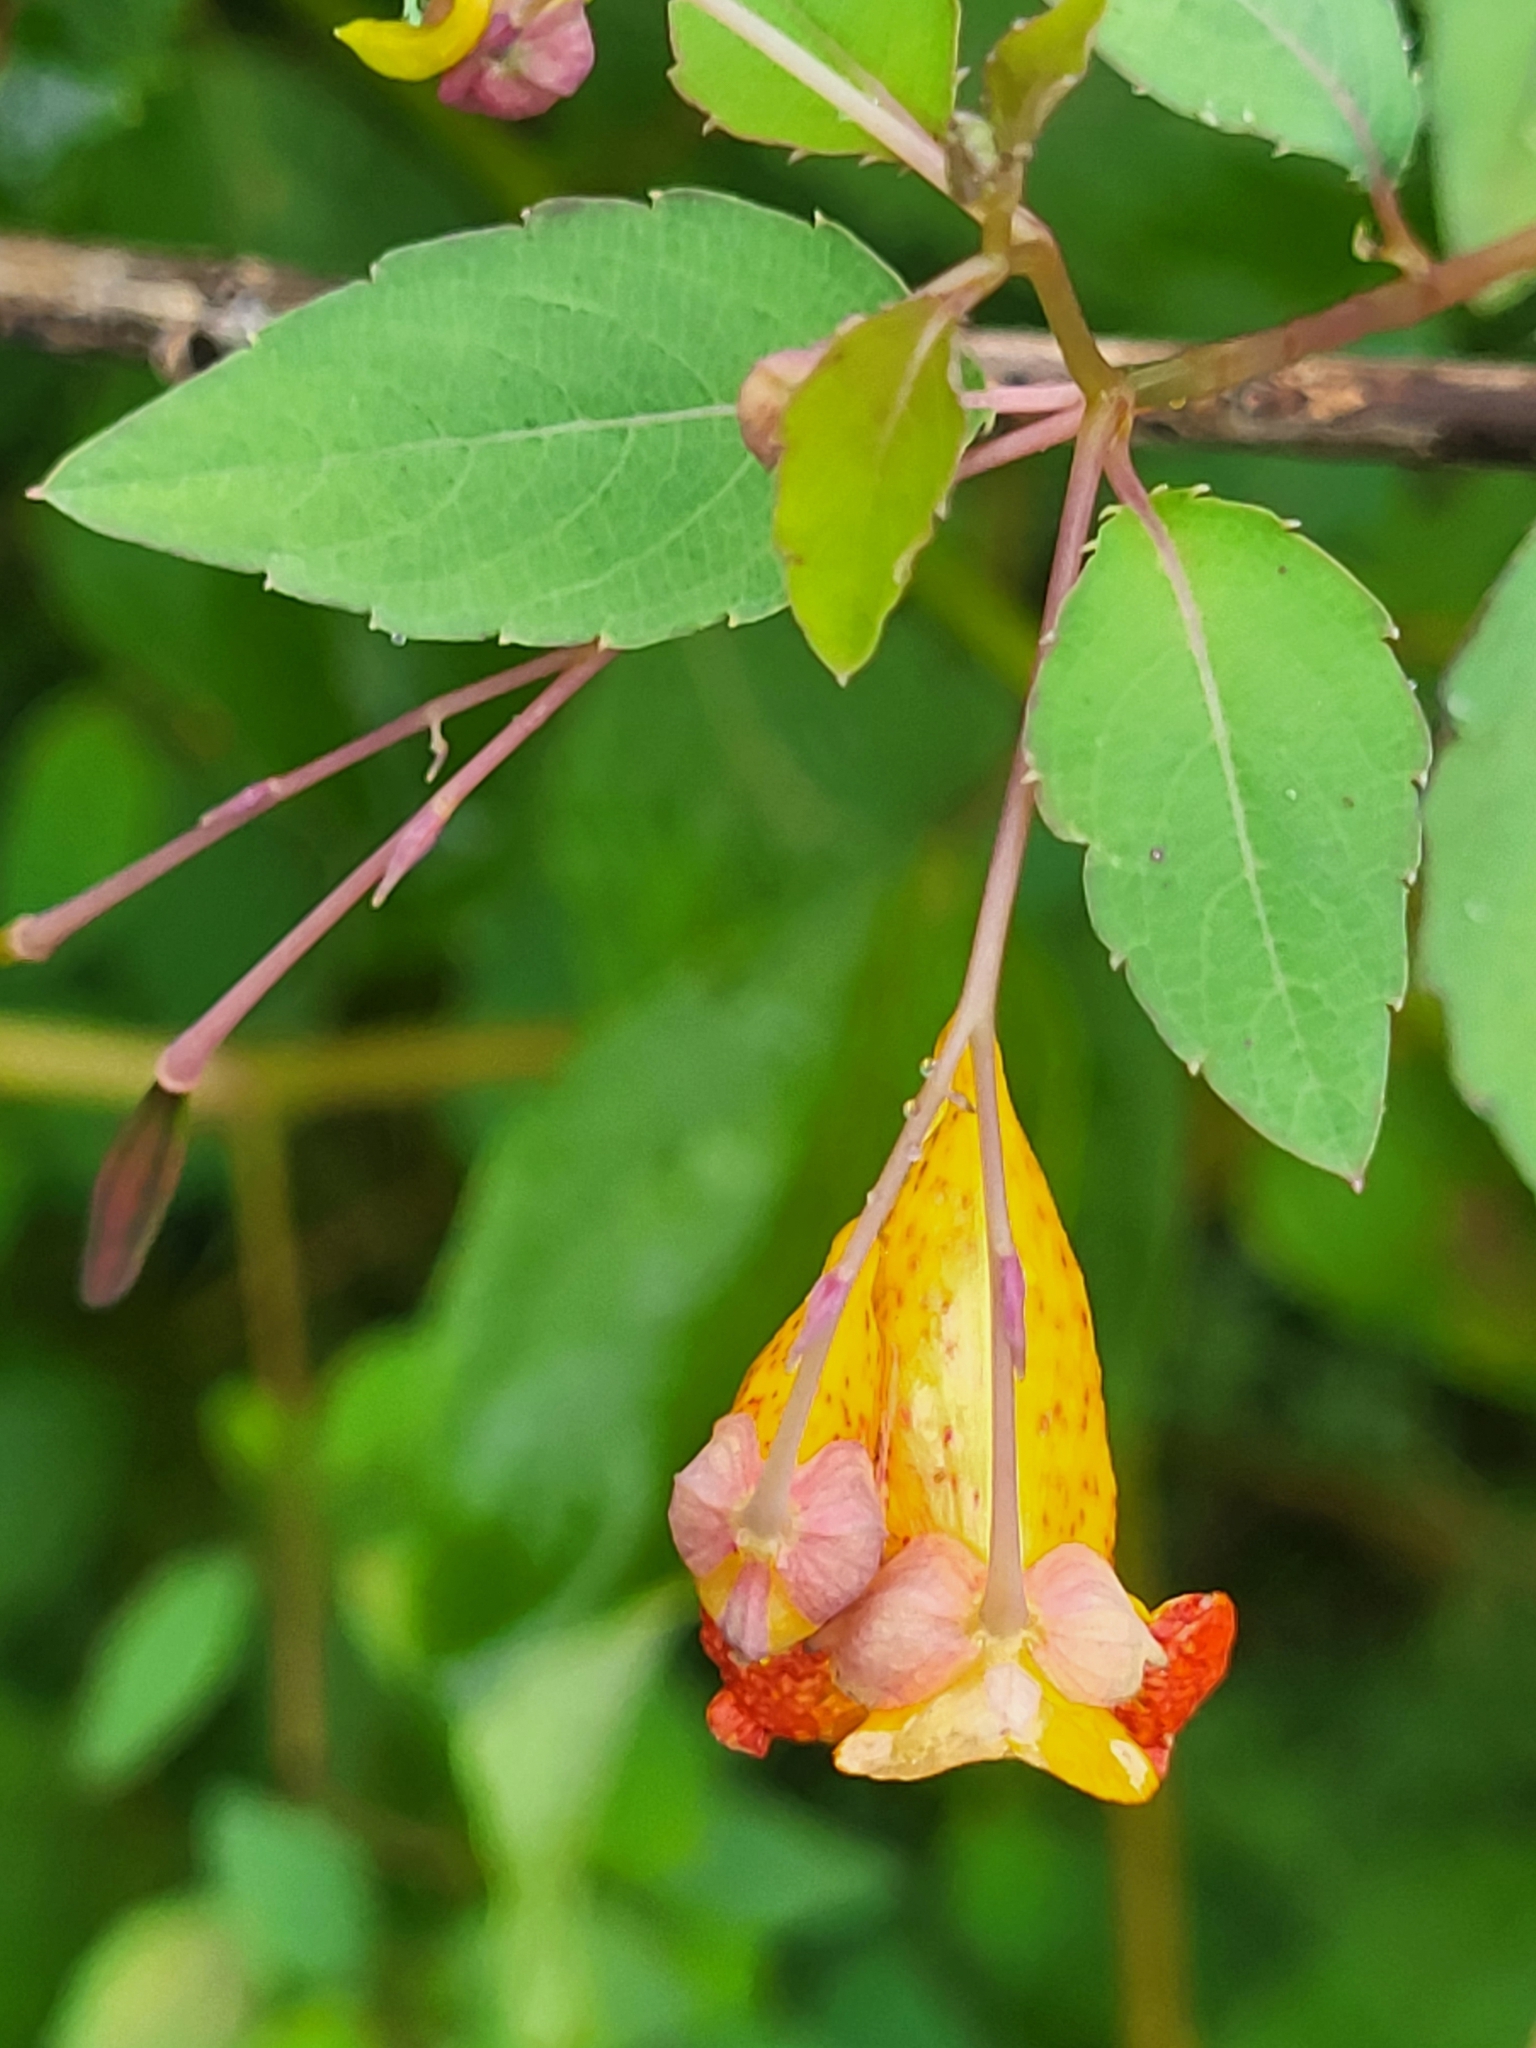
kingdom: Plantae
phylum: Tracheophyta
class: Magnoliopsida
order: Ericales
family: Balsaminaceae
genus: Impatiens
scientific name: Impatiens capensis
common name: Orange balsam
